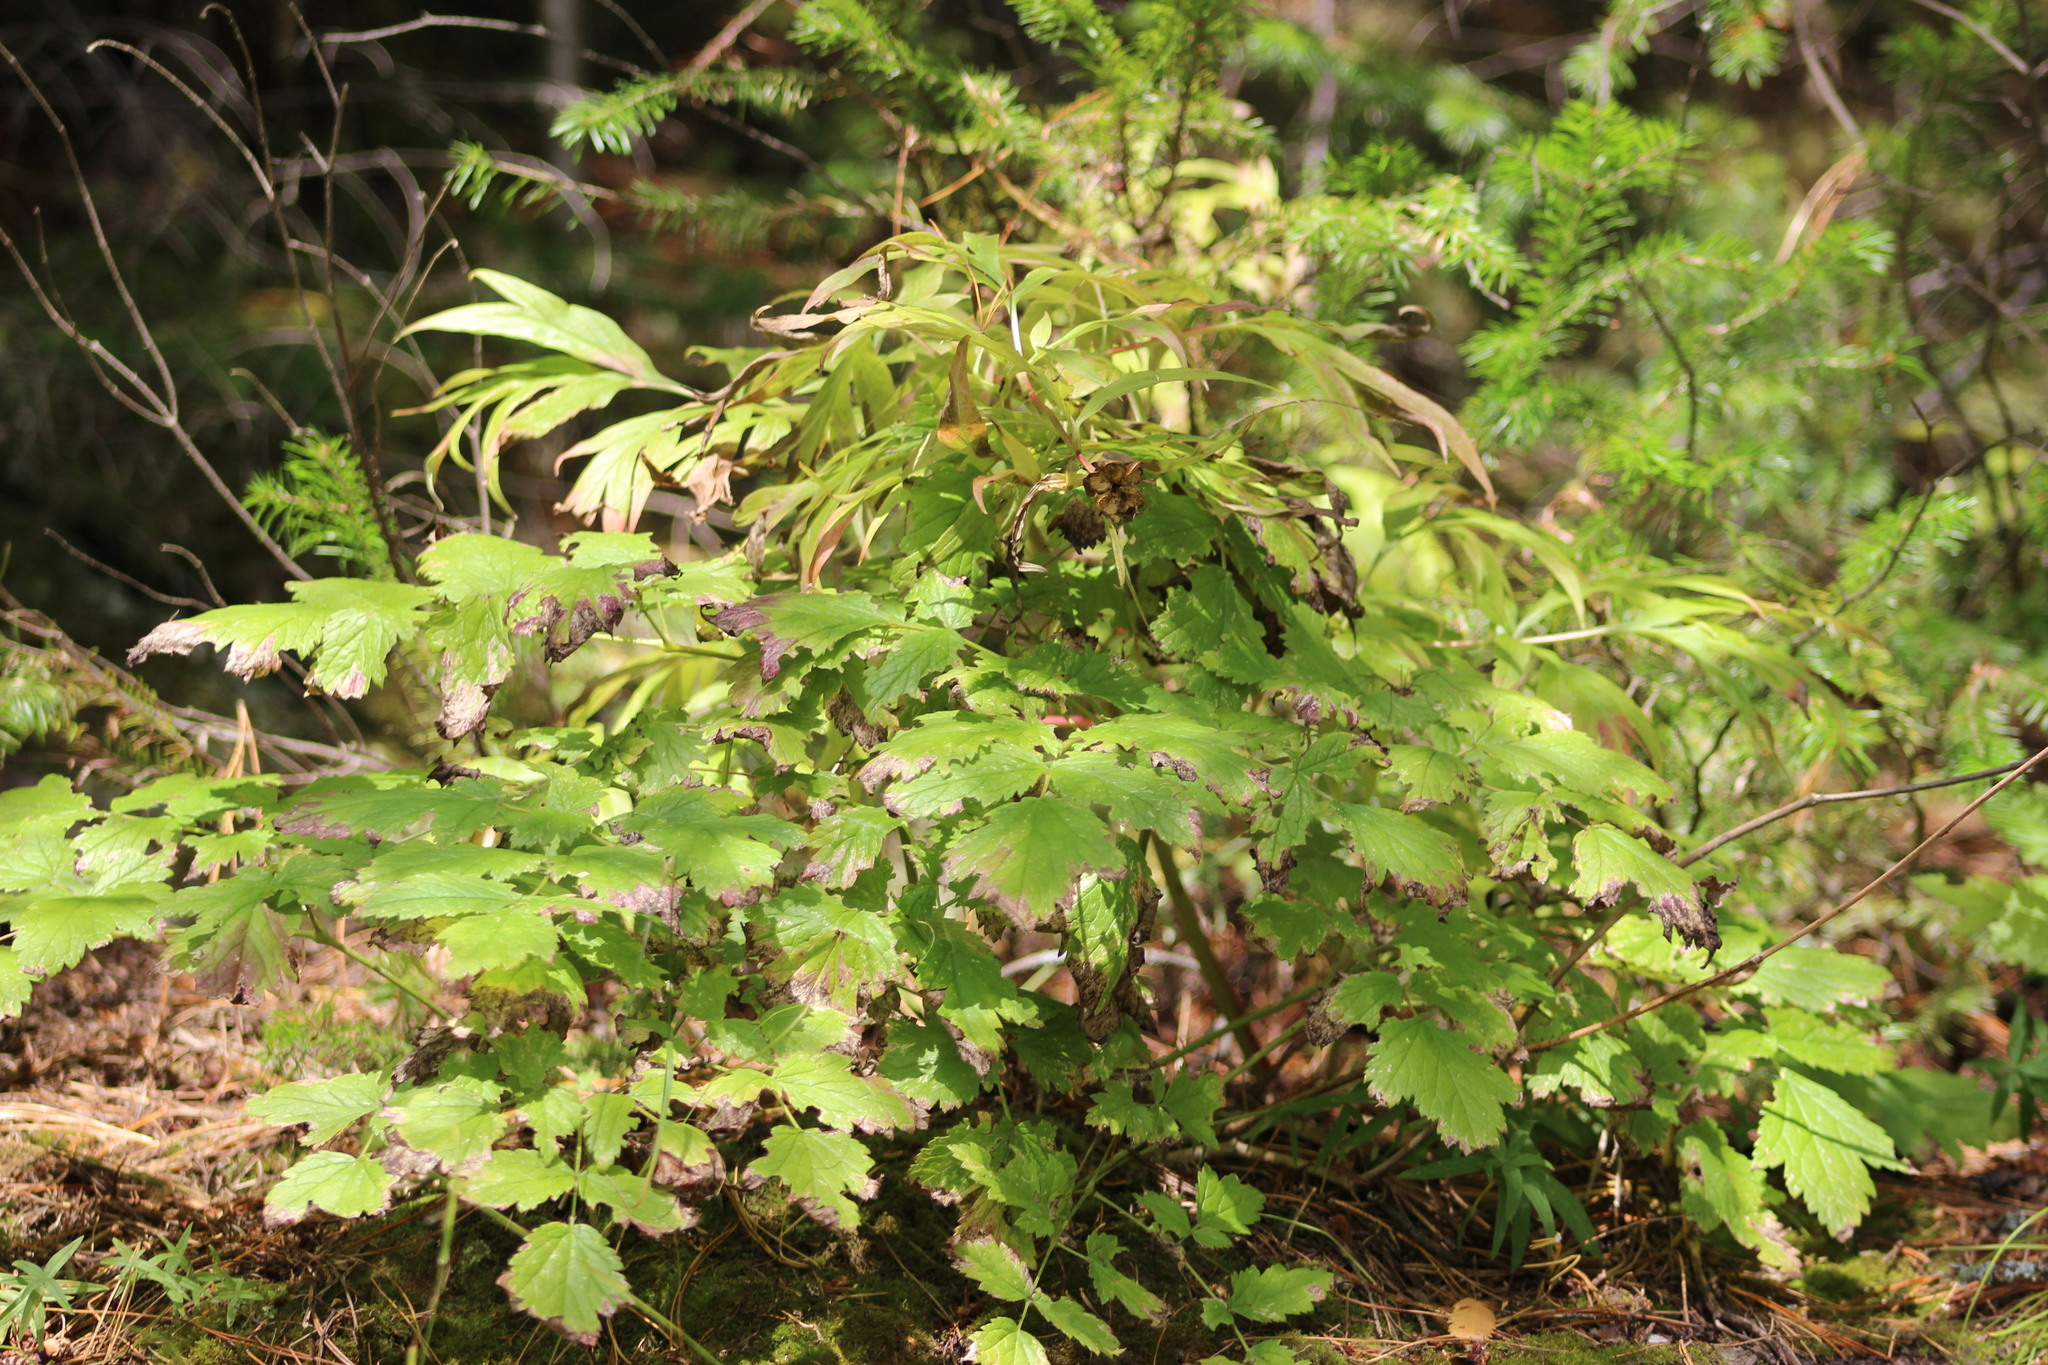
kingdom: Plantae
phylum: Tracheophyta
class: Magnoliopsida
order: Saxifragales
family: Paeoniaceae
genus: Paeonia
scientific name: Paeonia anomala
